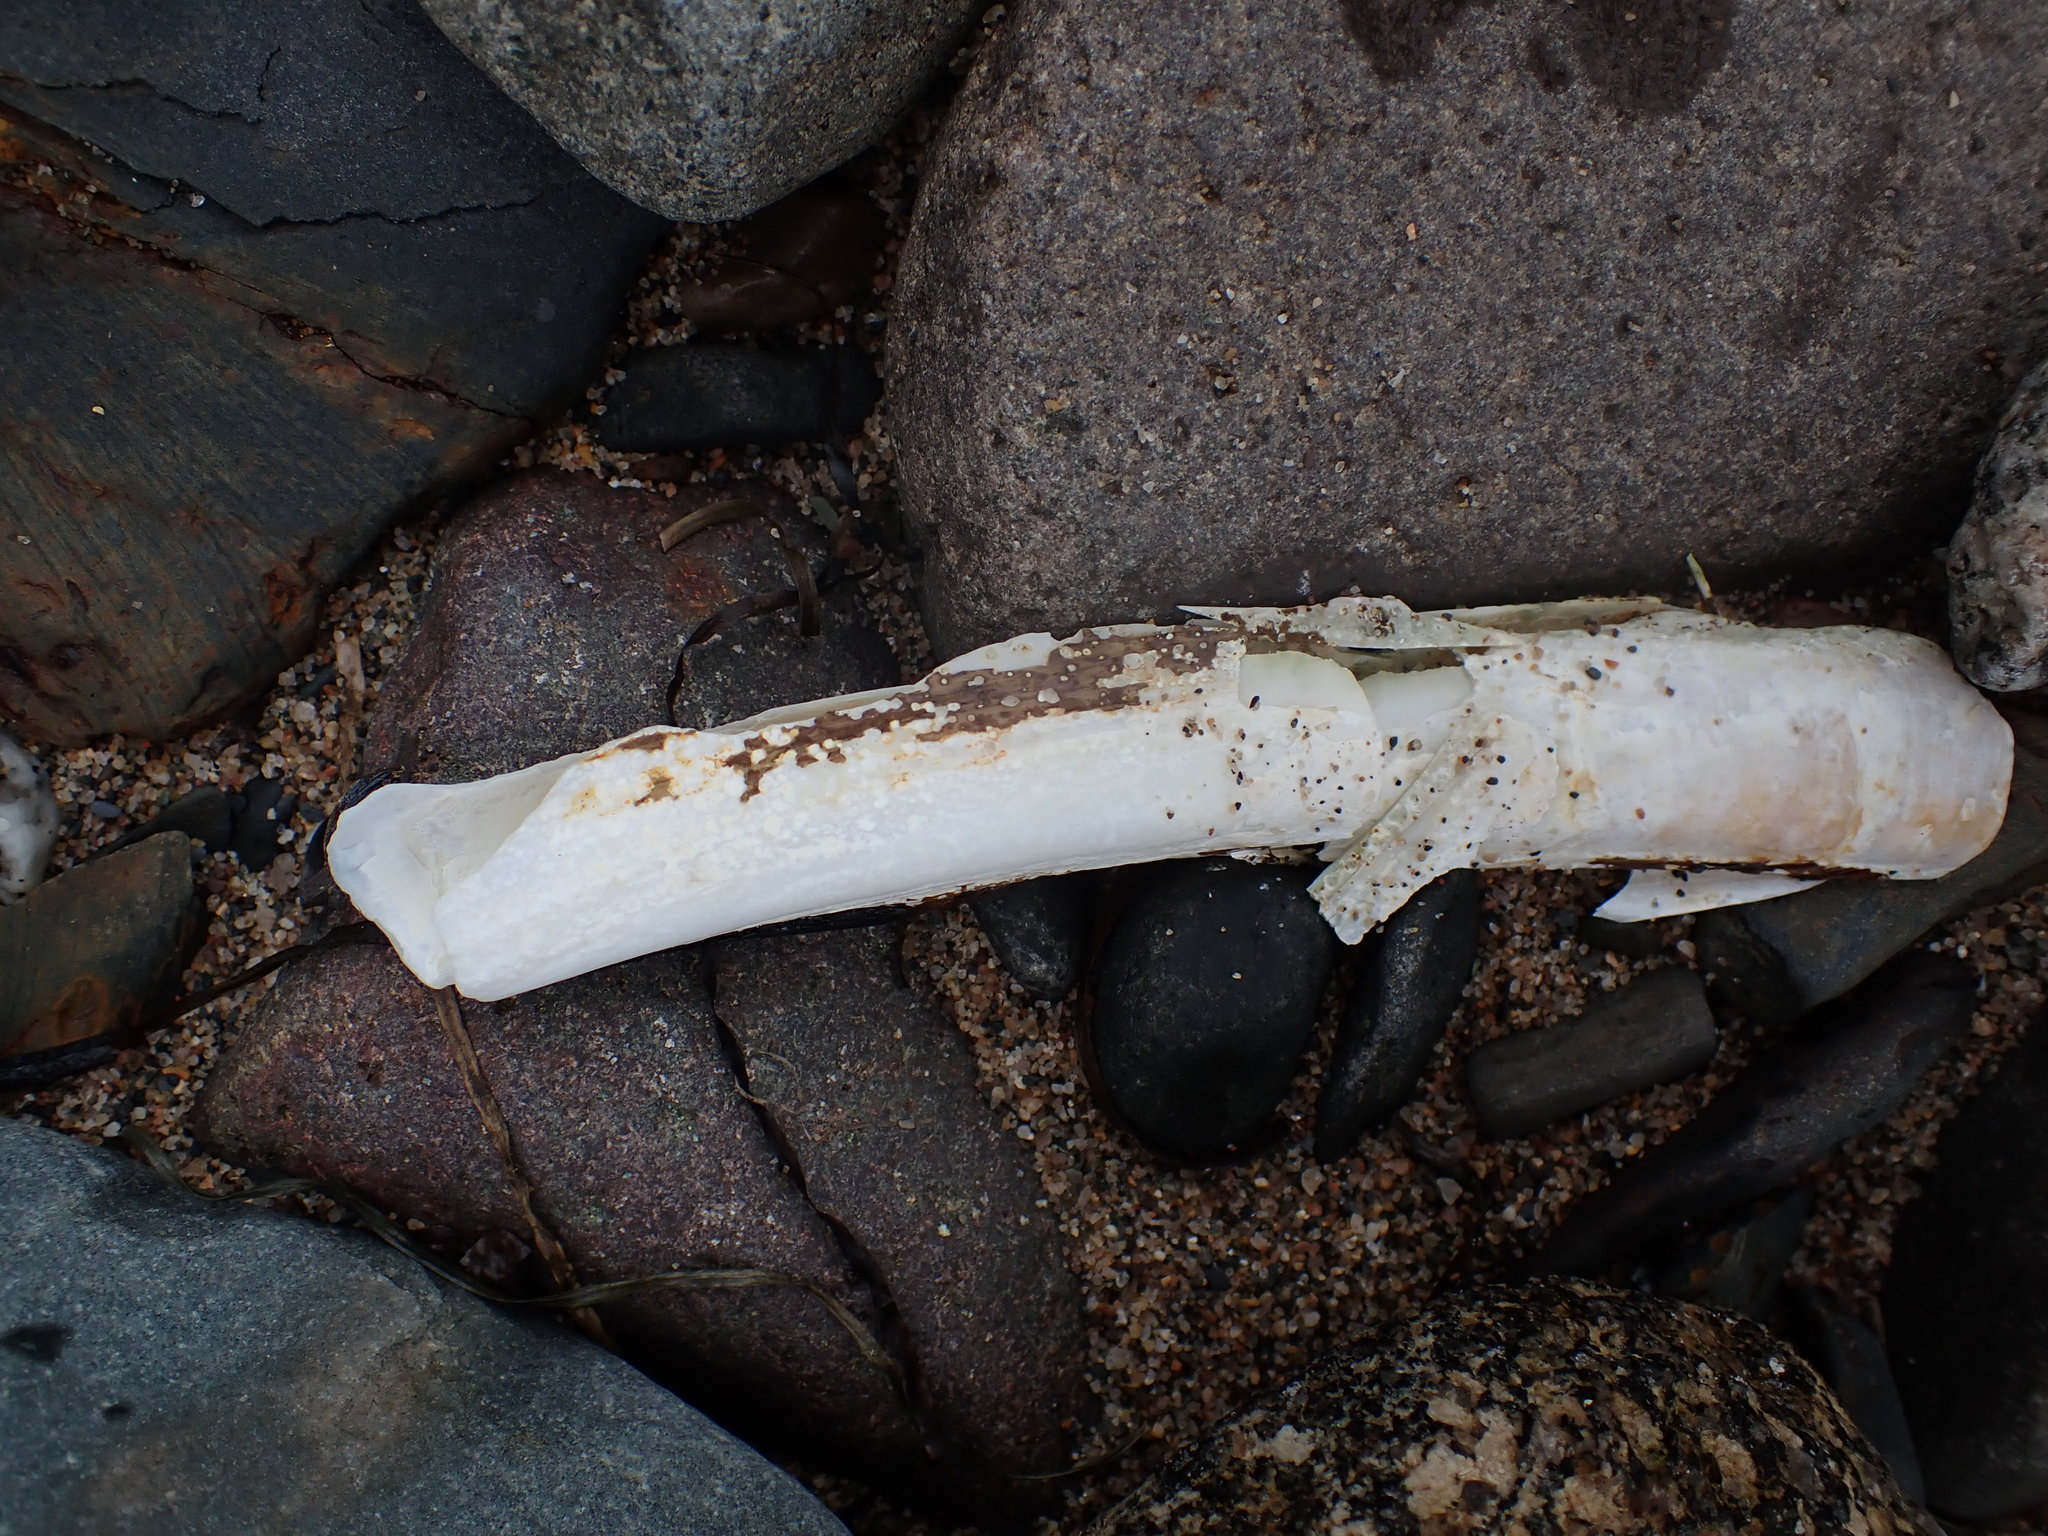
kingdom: Animalia
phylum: Mollusca
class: Bivalvia
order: Adapedonta
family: Pharidae
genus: Ensis
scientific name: Ensis leei
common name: American jack knife clam
